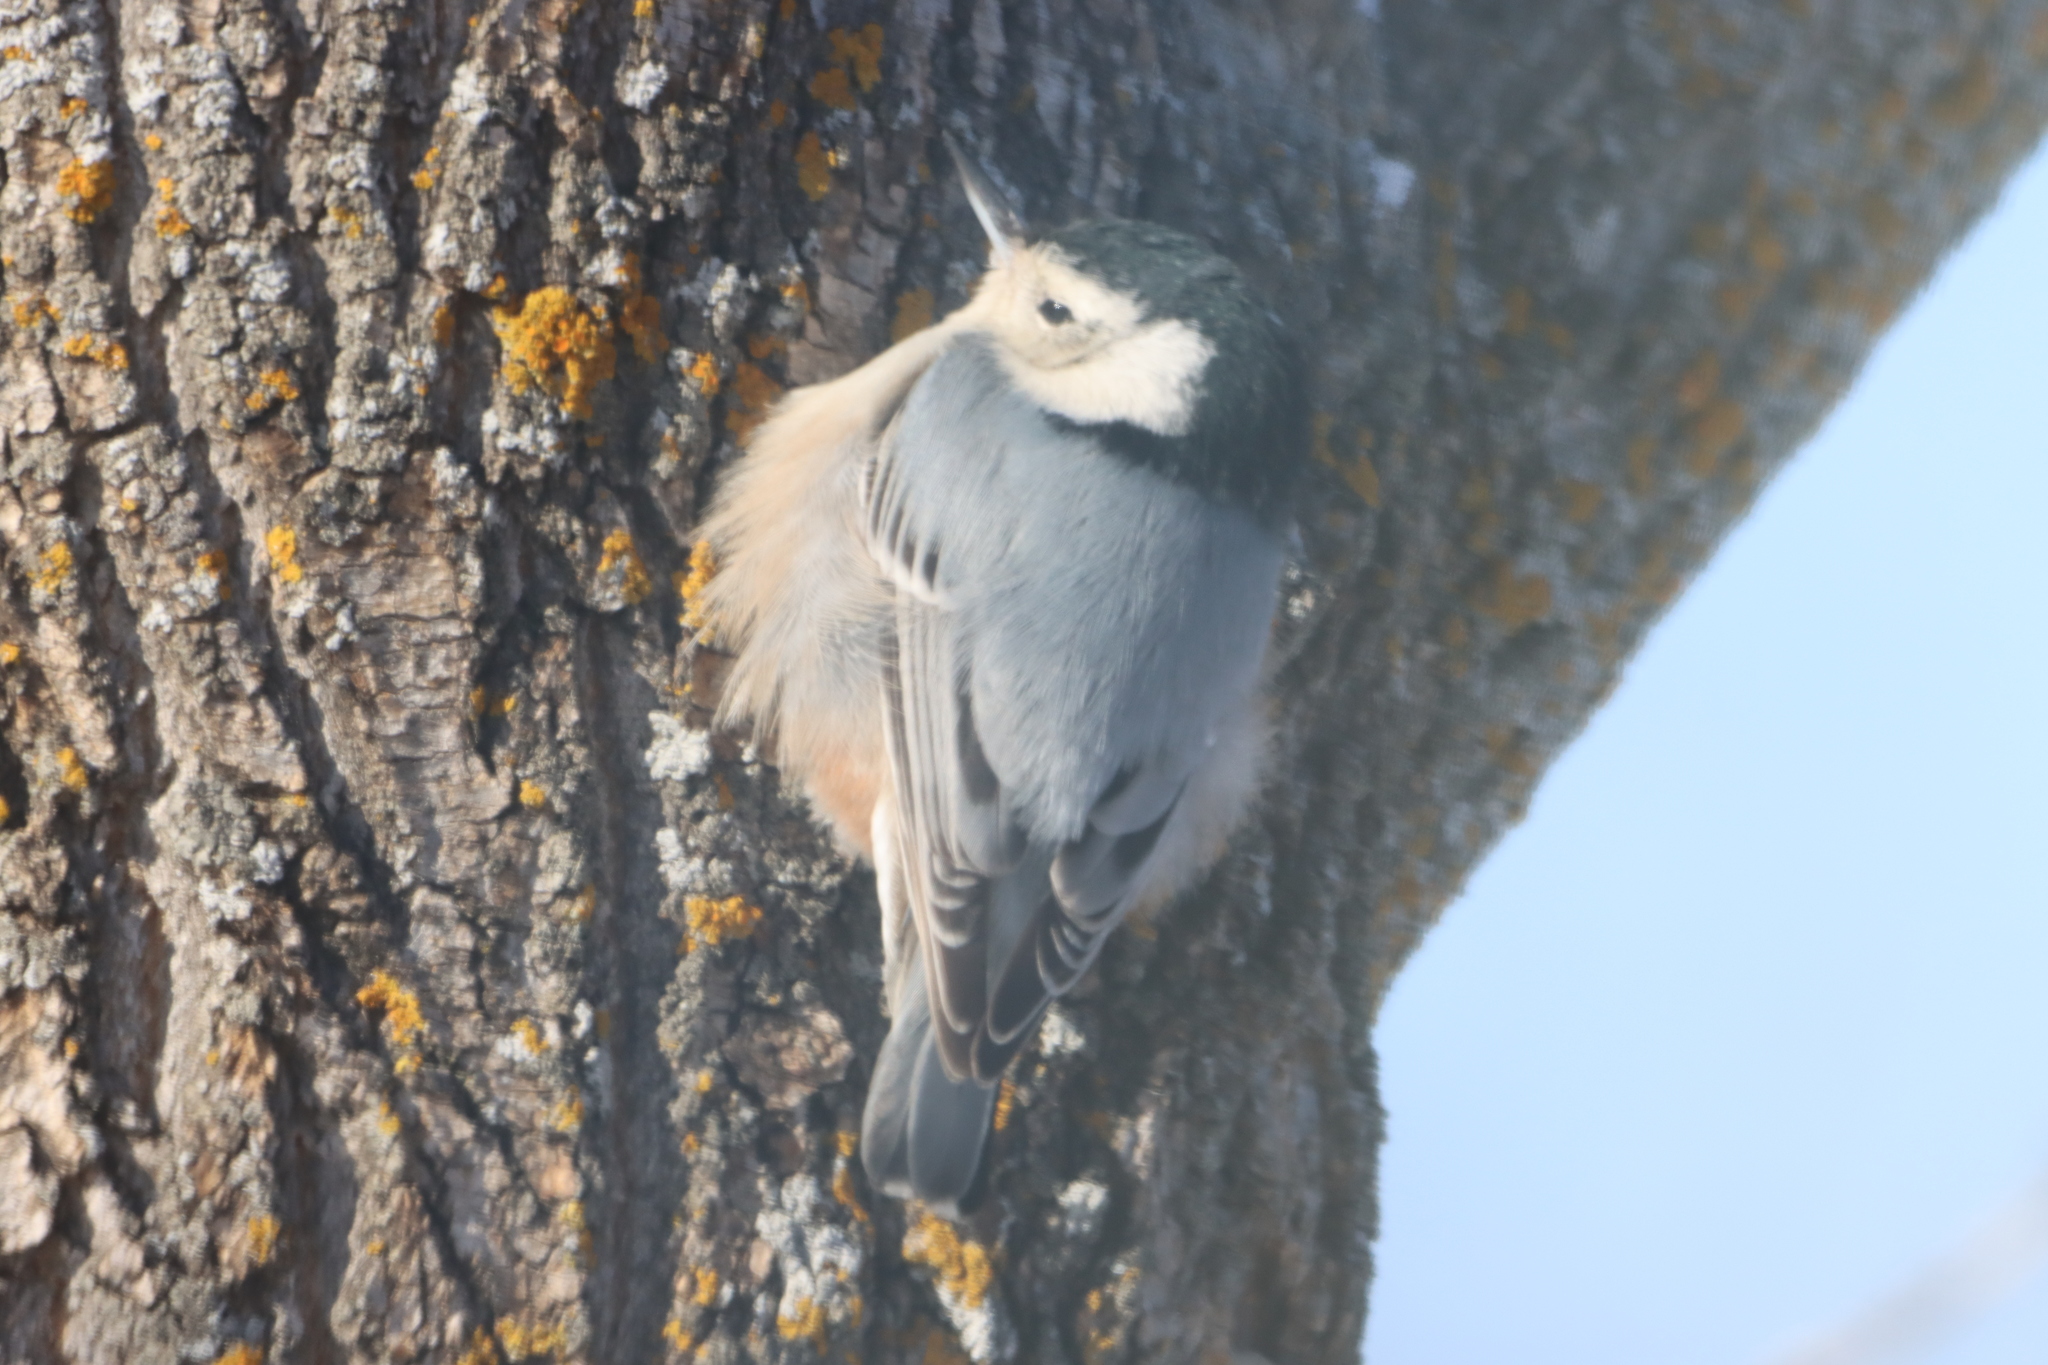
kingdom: Animalia
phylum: Chordata
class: Aves
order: Passeriformes
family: Sittidae
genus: Sitta
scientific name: Sitta carolinensis
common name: White-breasted nuthatch
